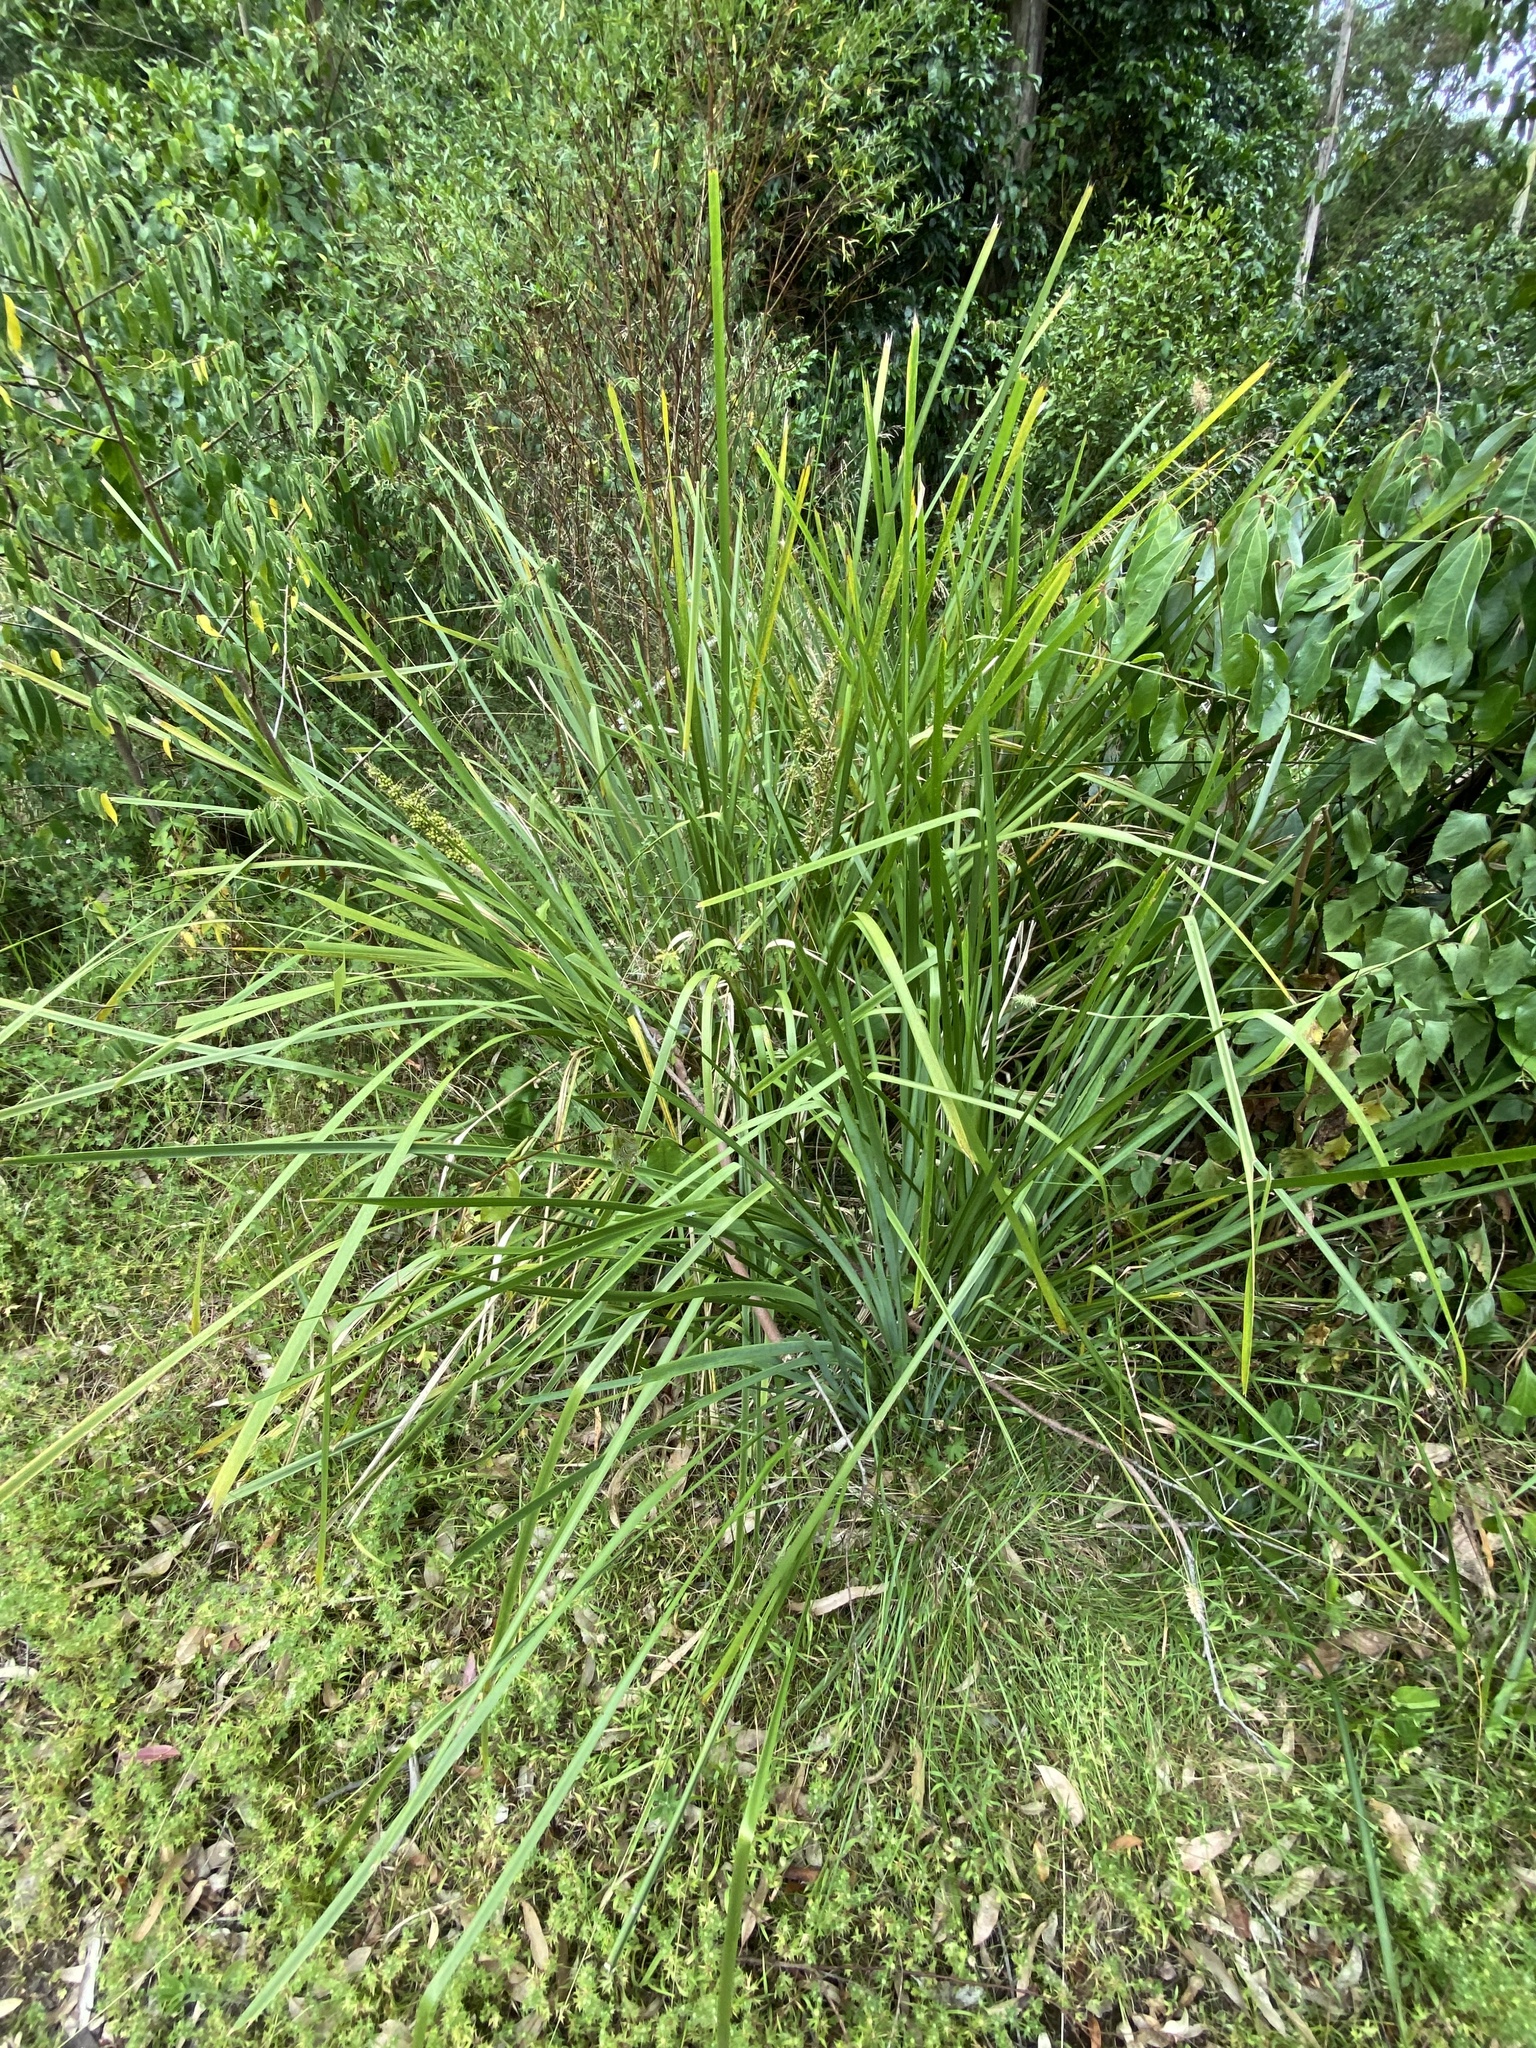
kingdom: Plantae
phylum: Tracheophyta
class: Liliopsida
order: Asparagales
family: Asparagaceae
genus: Lomandra
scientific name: Lomandra longifolia
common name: Longleaf mat-rush
